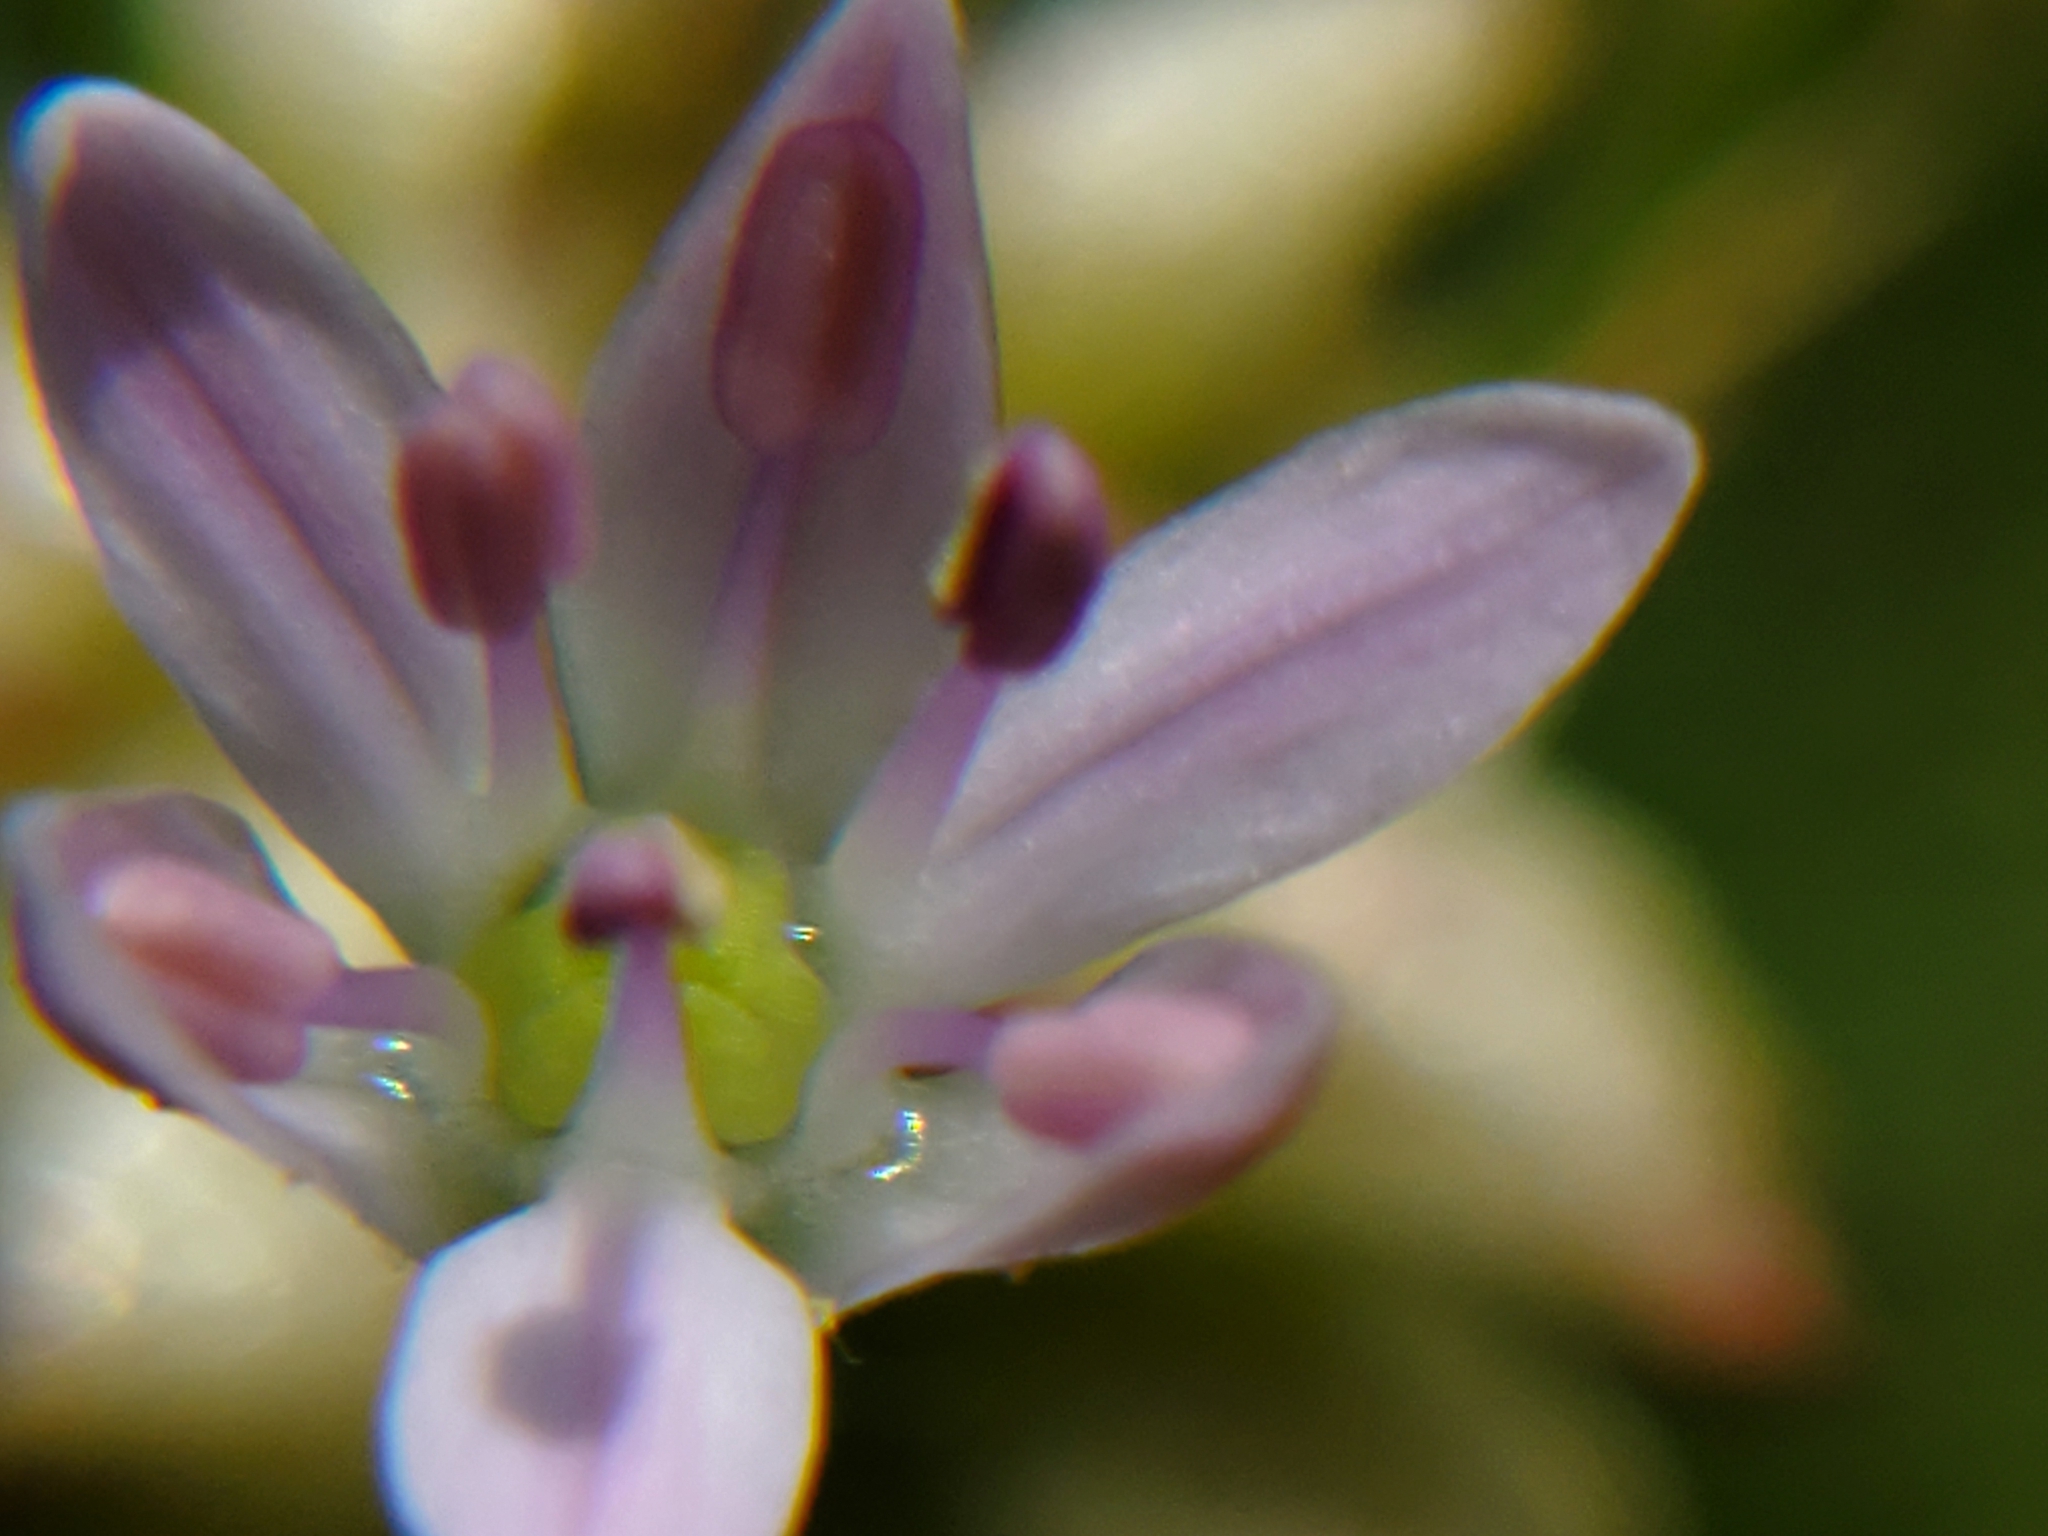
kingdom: Plantae
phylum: Tracheophyta
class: Liliopsida
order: Asparagales
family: Amaryllidaceae
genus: Allium
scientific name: Allium canadense
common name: Meadow garlic
